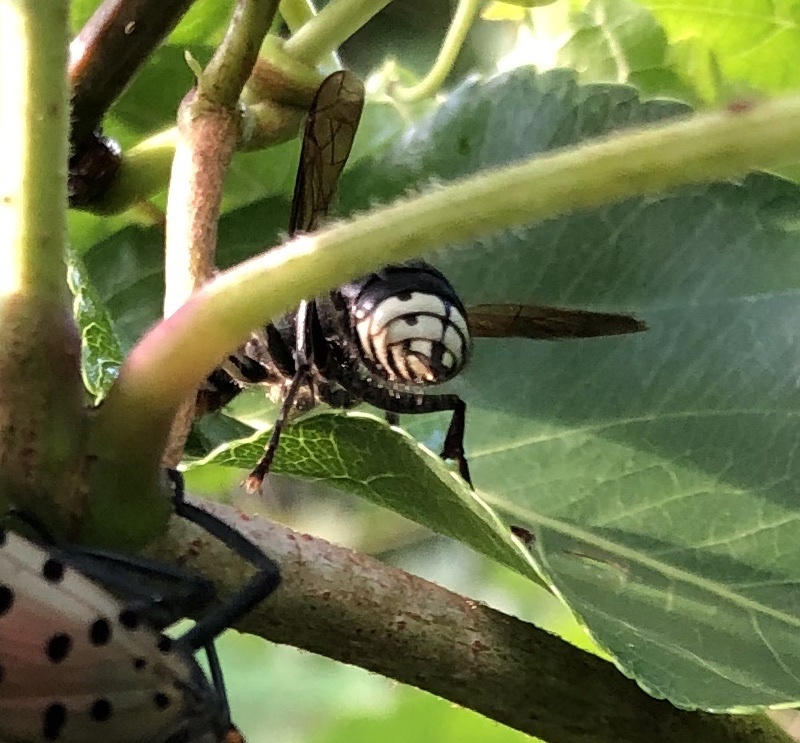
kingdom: Animalia
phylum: Arthropoda
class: Insecta
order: Hymenoptera
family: Vespidae
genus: Dolichovespula
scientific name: Dolichovespula maculata
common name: Bald-faced hornet
